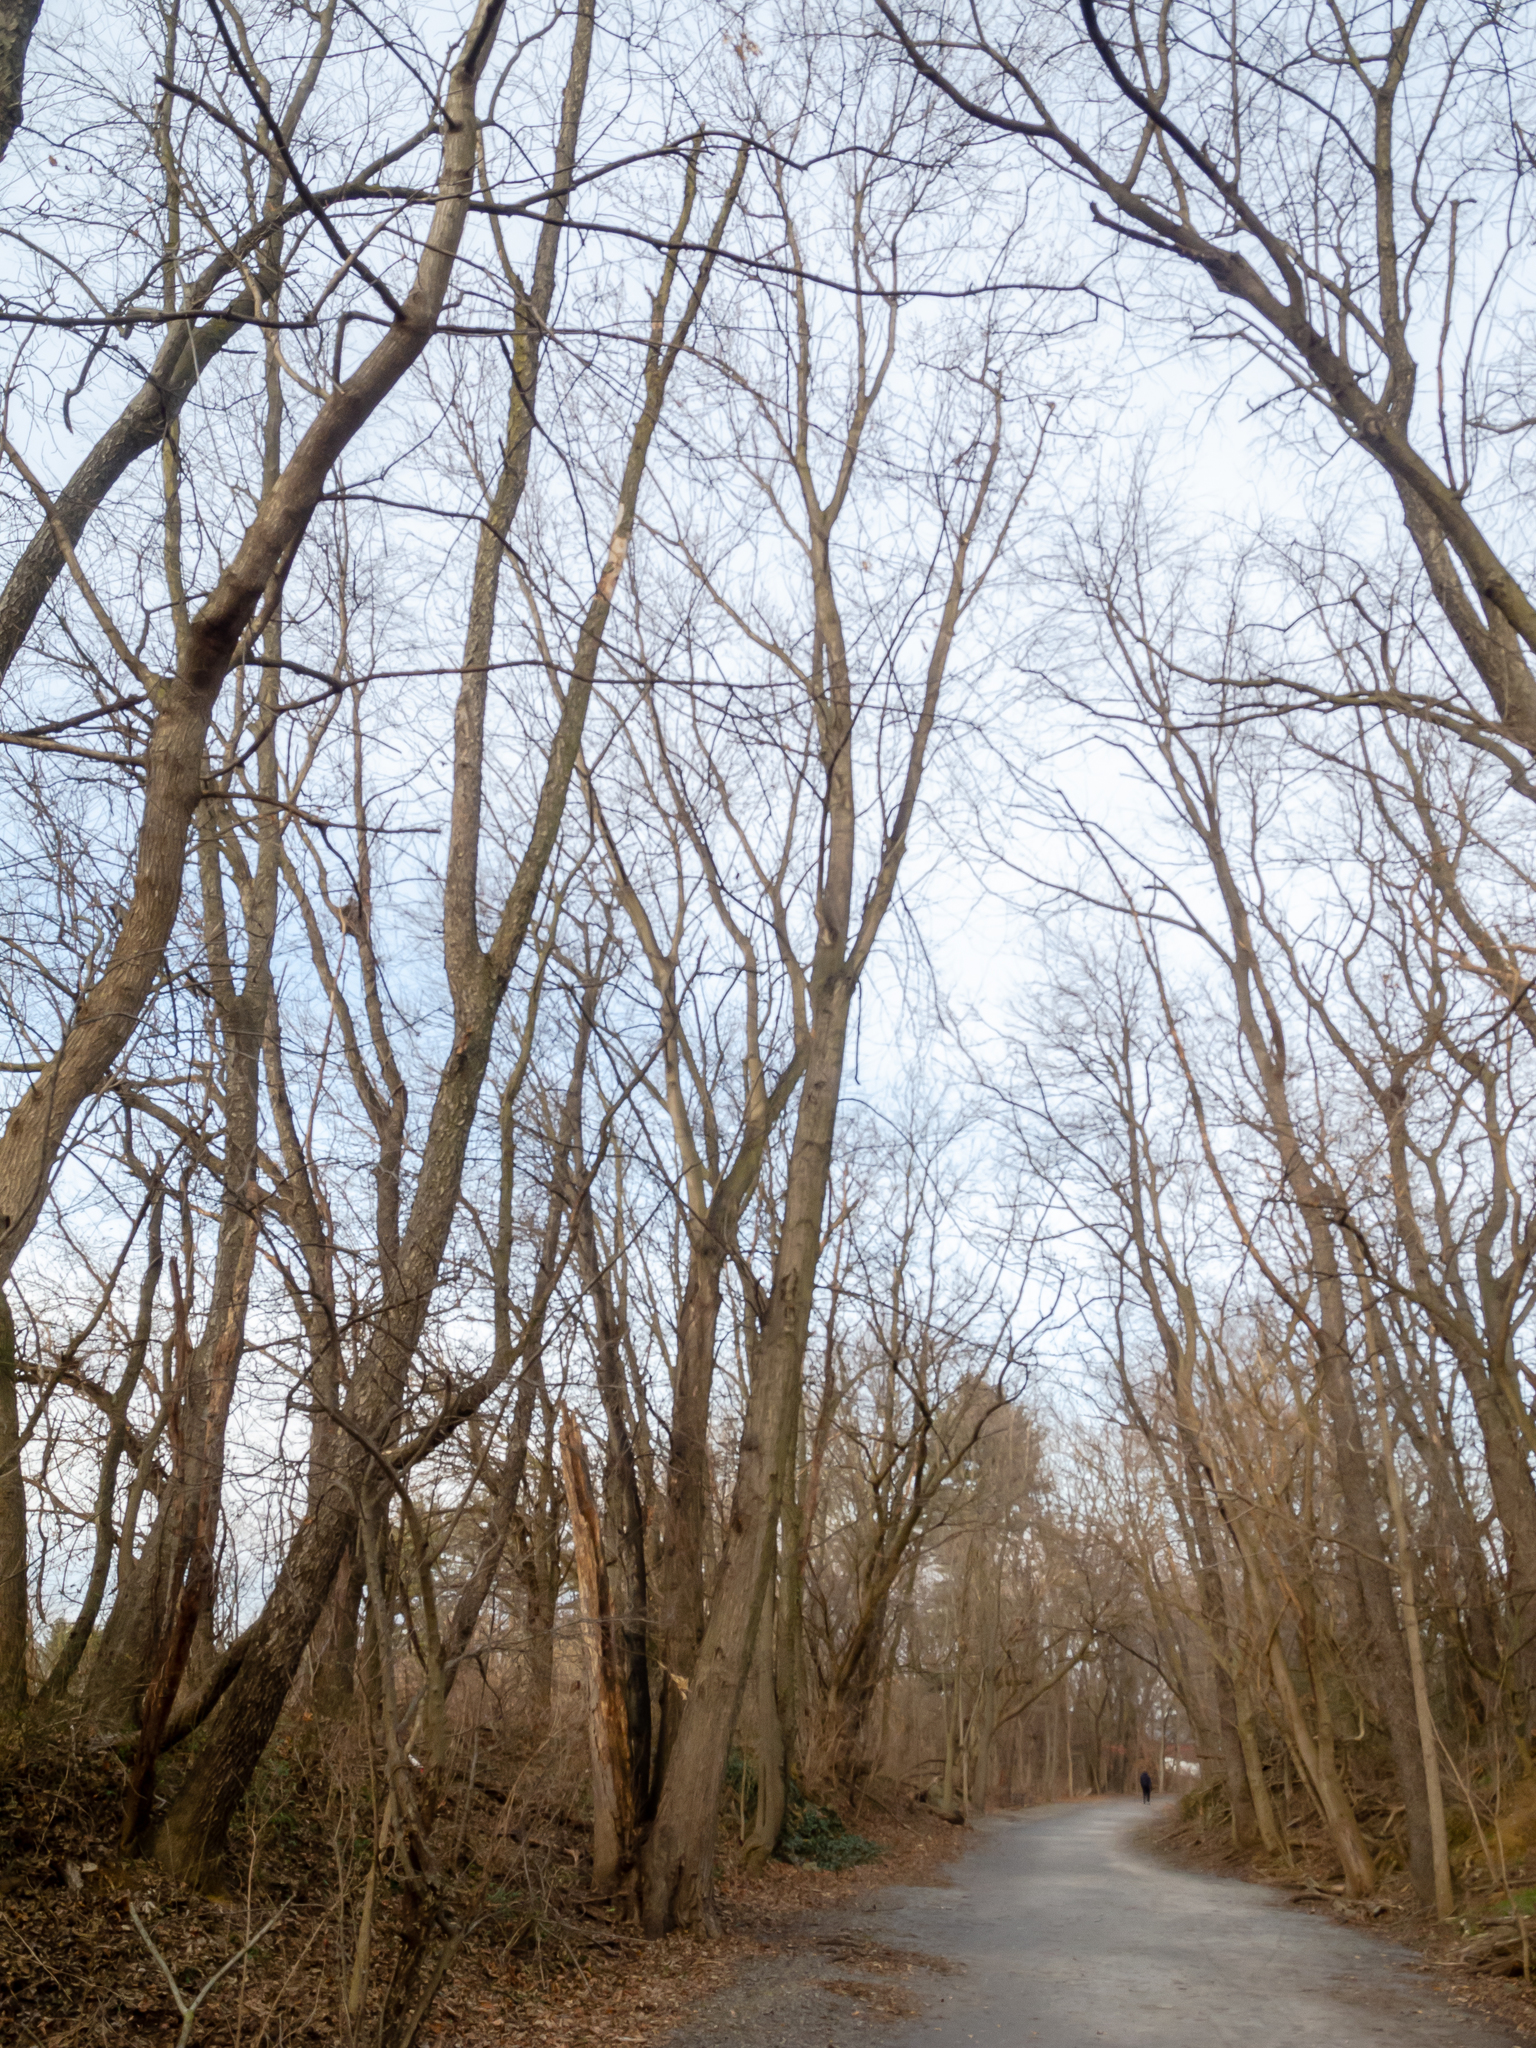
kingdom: Plantae
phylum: Tracheophyta
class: Magnoliopsida
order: Sapindales
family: Sapindaceae
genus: Acer
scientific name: Acer rubrum
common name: Red maple
